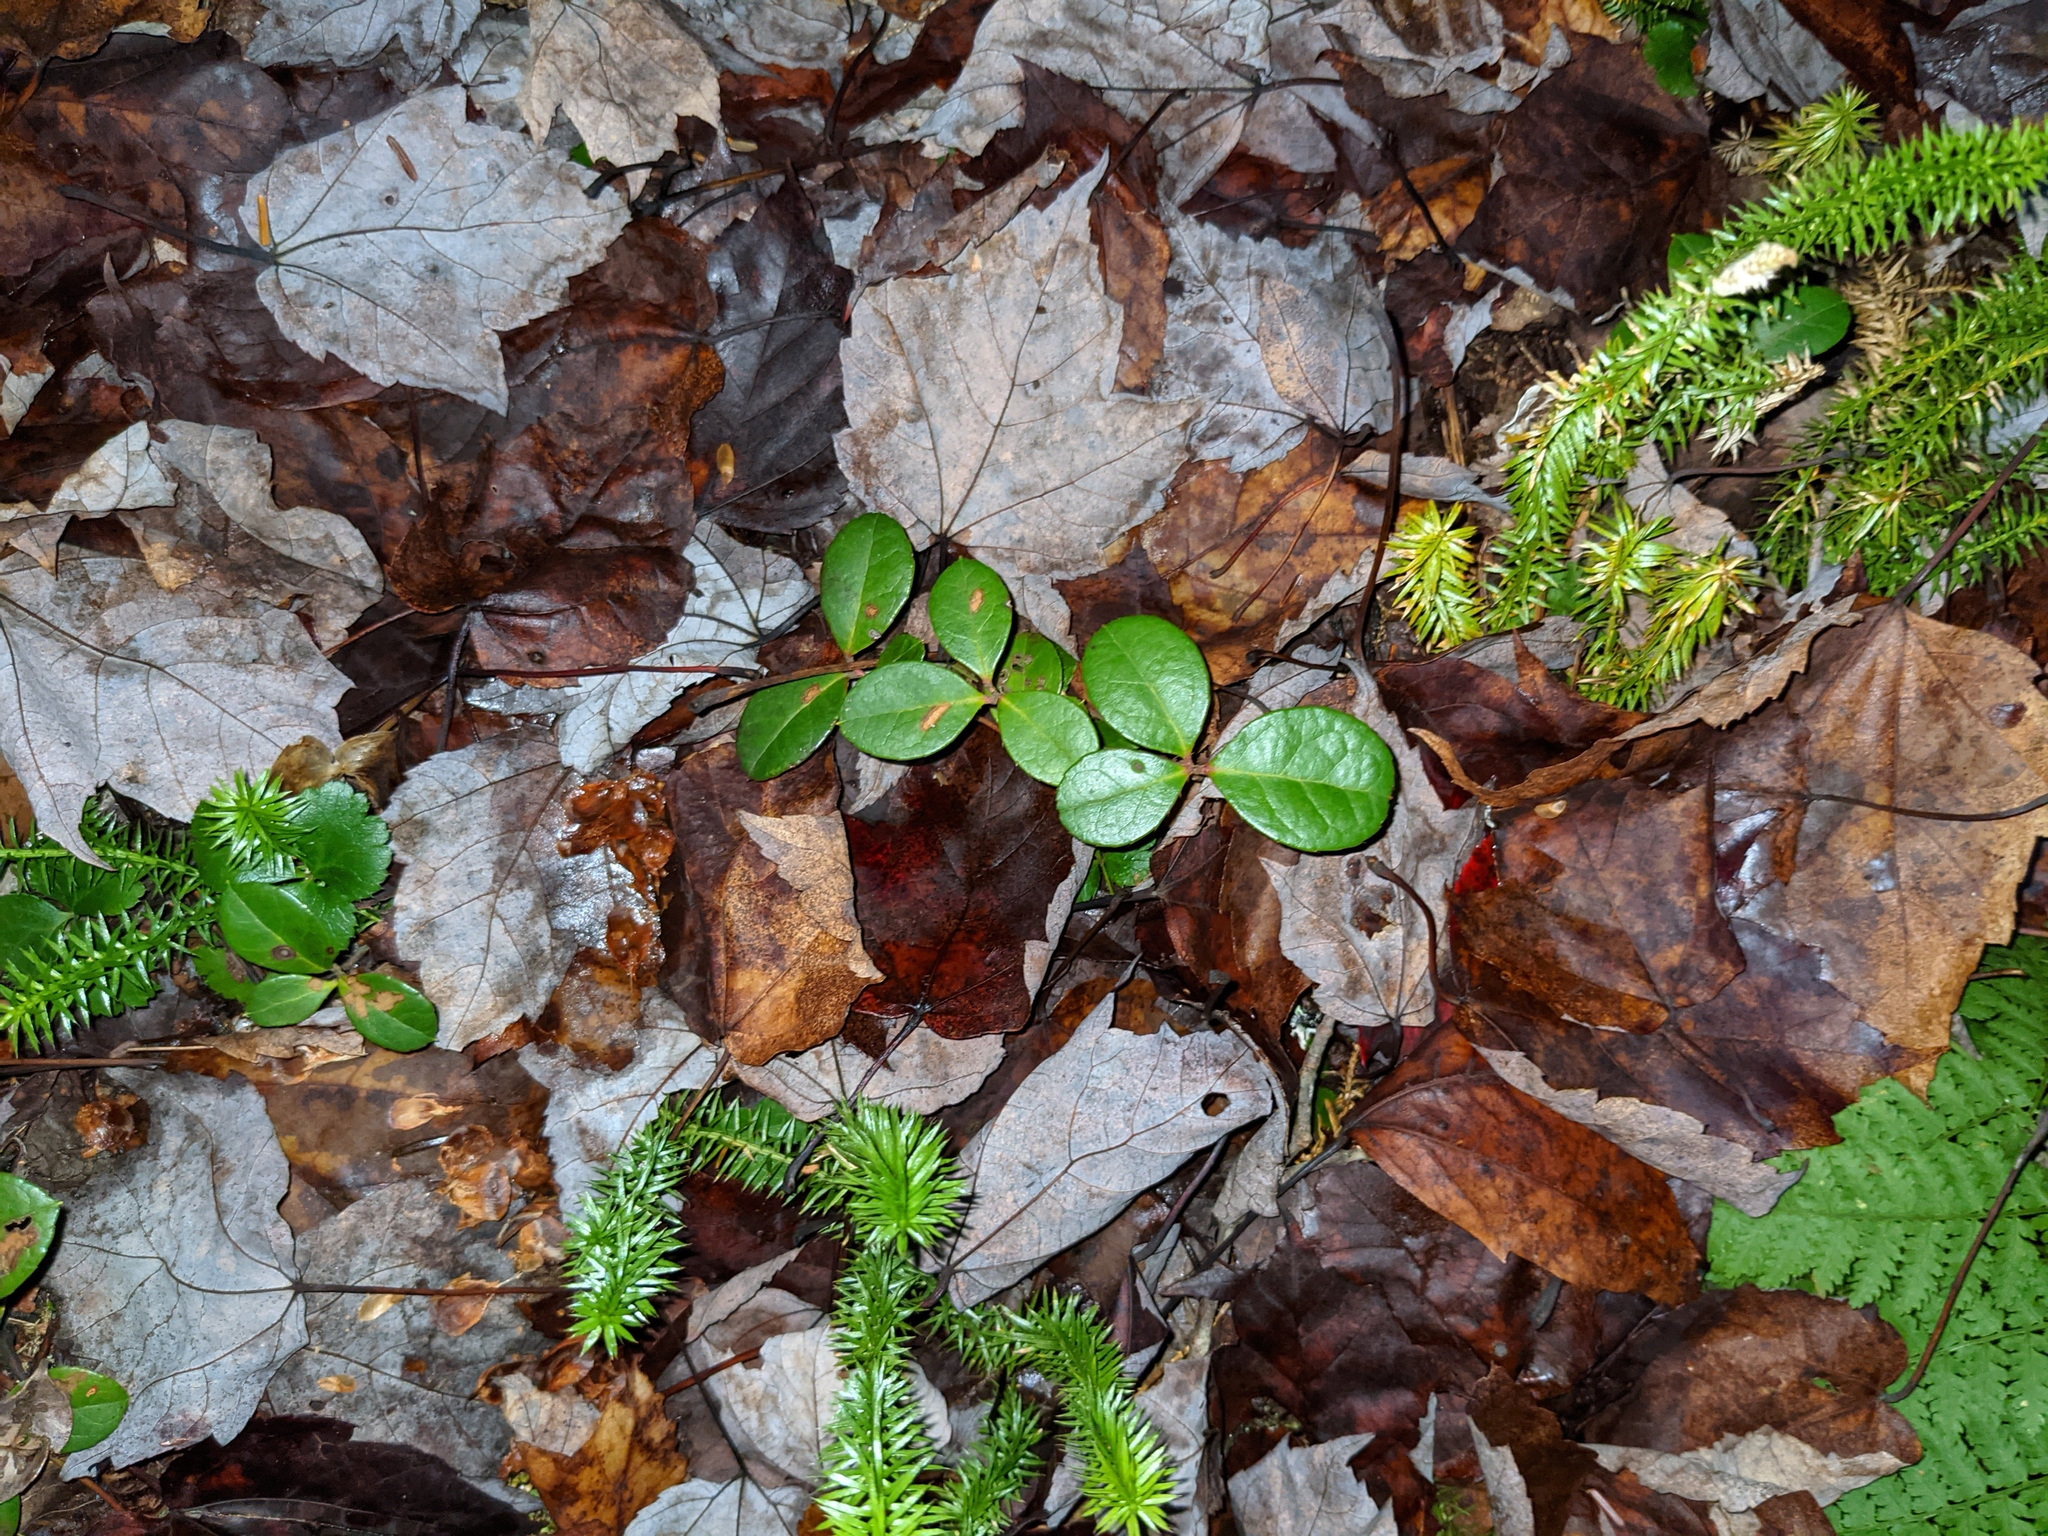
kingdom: Plantae
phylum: Tracheophyta
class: Magnoliopsida
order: Ericales
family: Ericaceae
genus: Gaultheria
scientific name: Gaultheria procumbens
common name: Checkerberry
